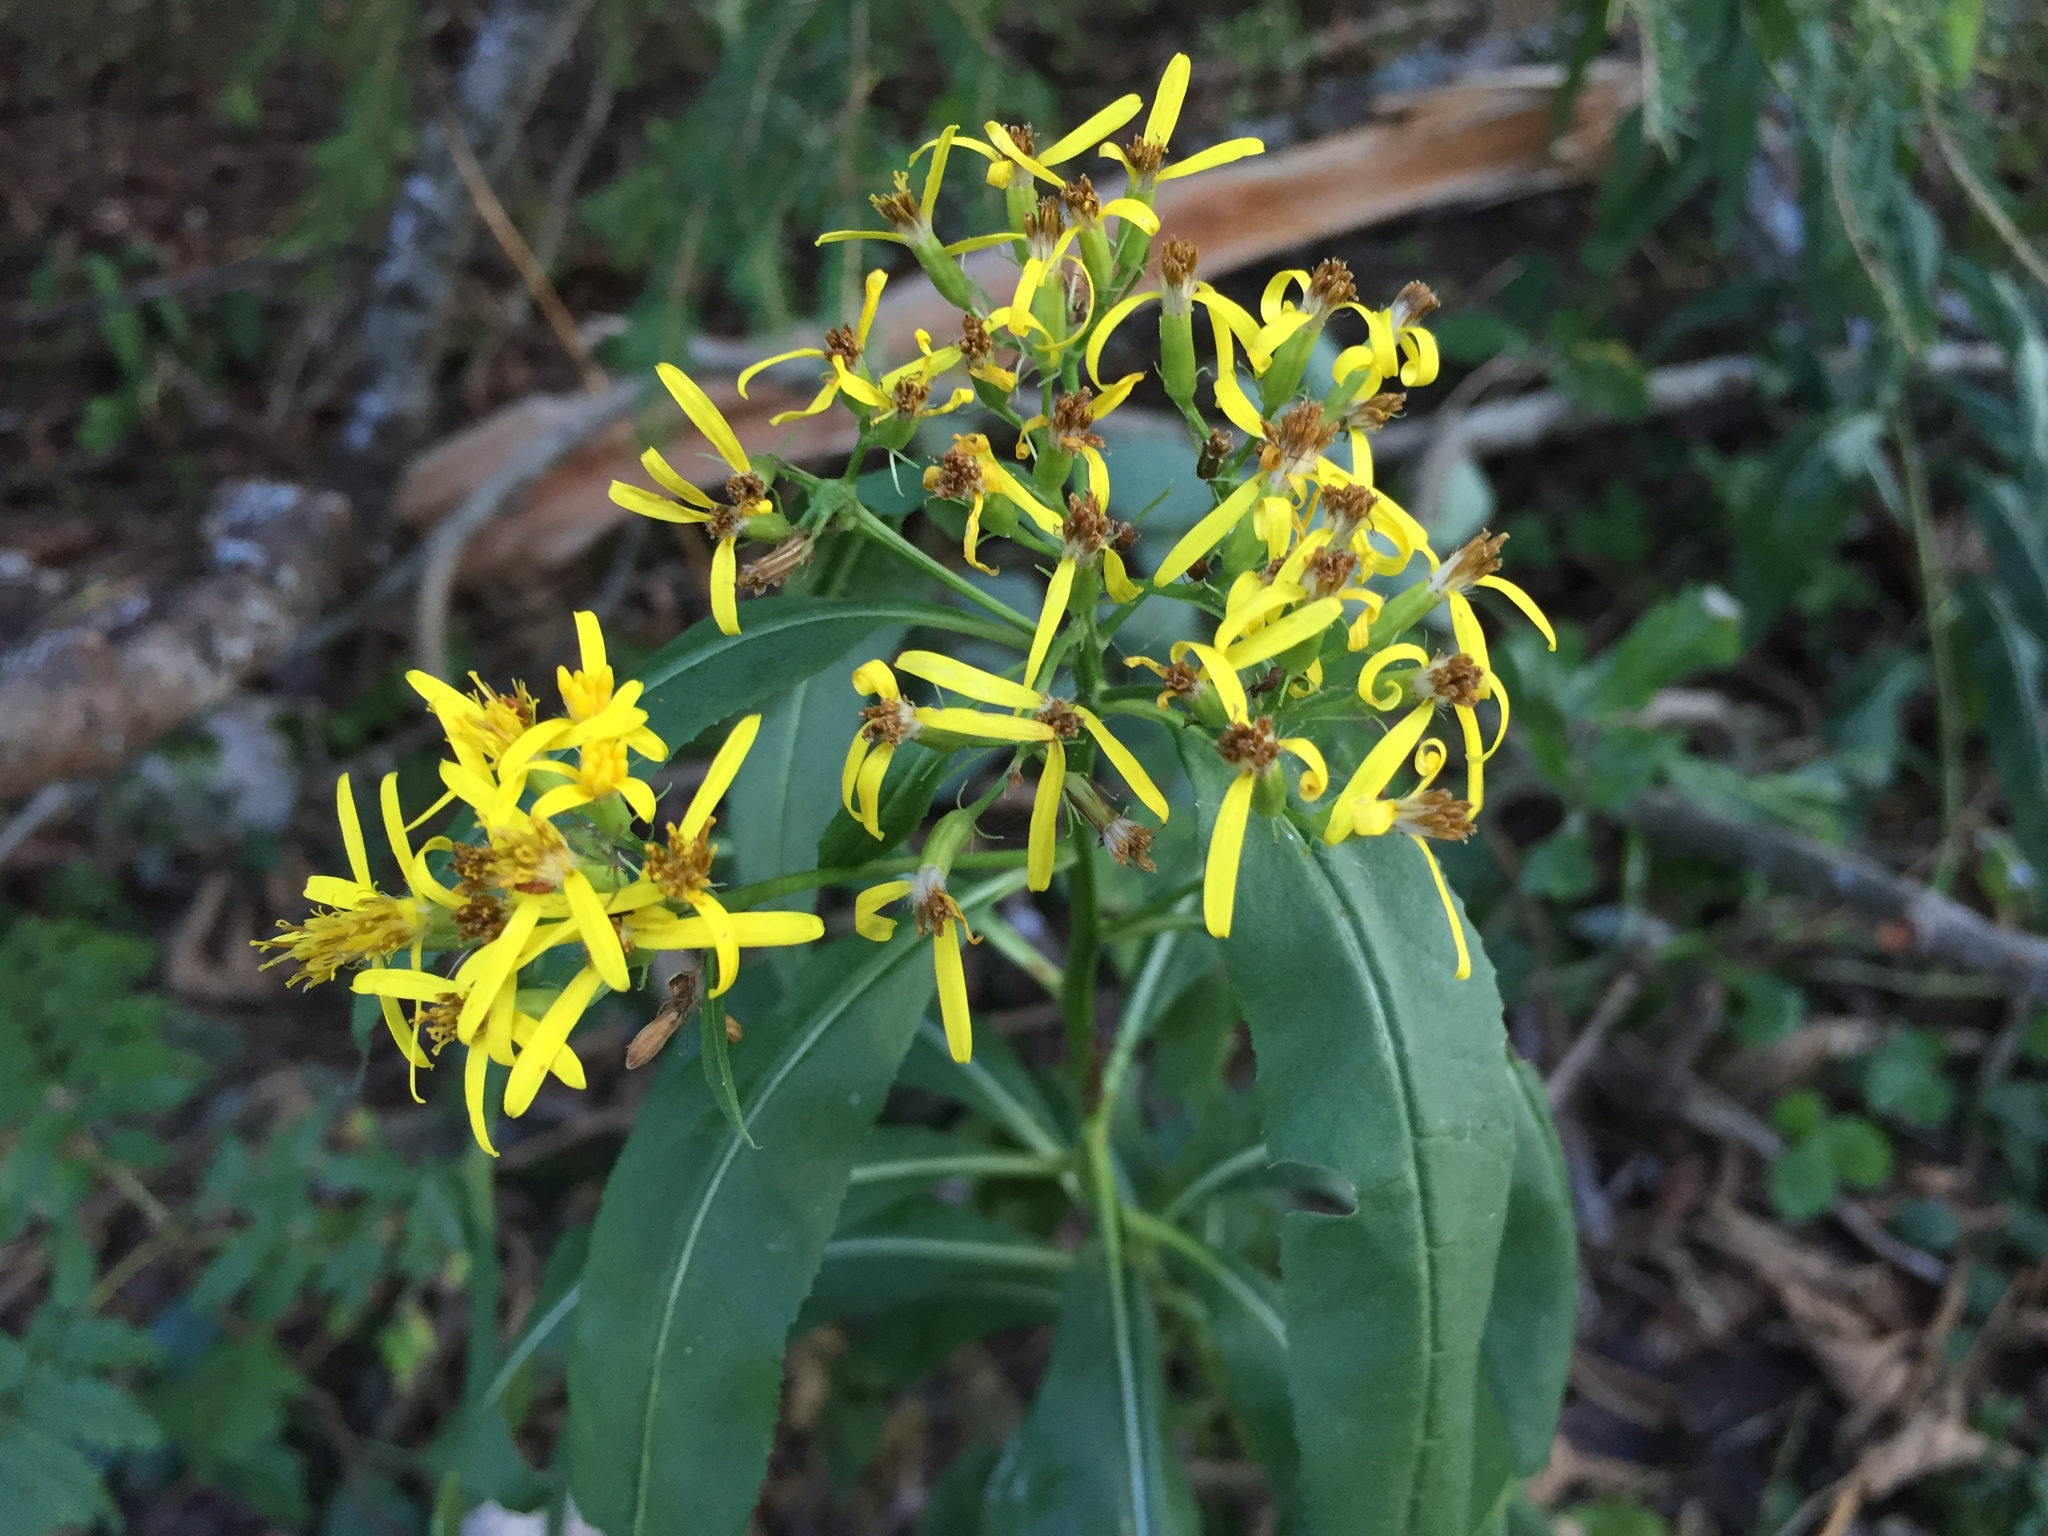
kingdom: Plantae
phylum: Tracheophyta
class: Magnoliopsida
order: Asterales
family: Asteraceae
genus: Senecio
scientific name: Senecio ovatus
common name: Wood ragwort
